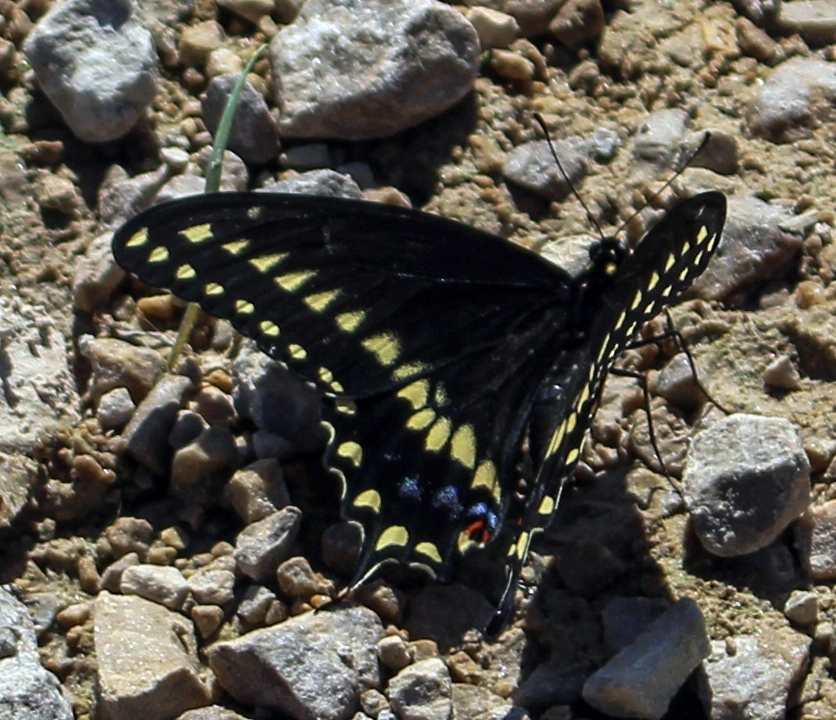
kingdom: Animalia
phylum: Arthropoda
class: Insecta
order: Lepidoptera
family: Papilionidae
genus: Papilio
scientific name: Papilio polyxenes
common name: Black swallowtail
